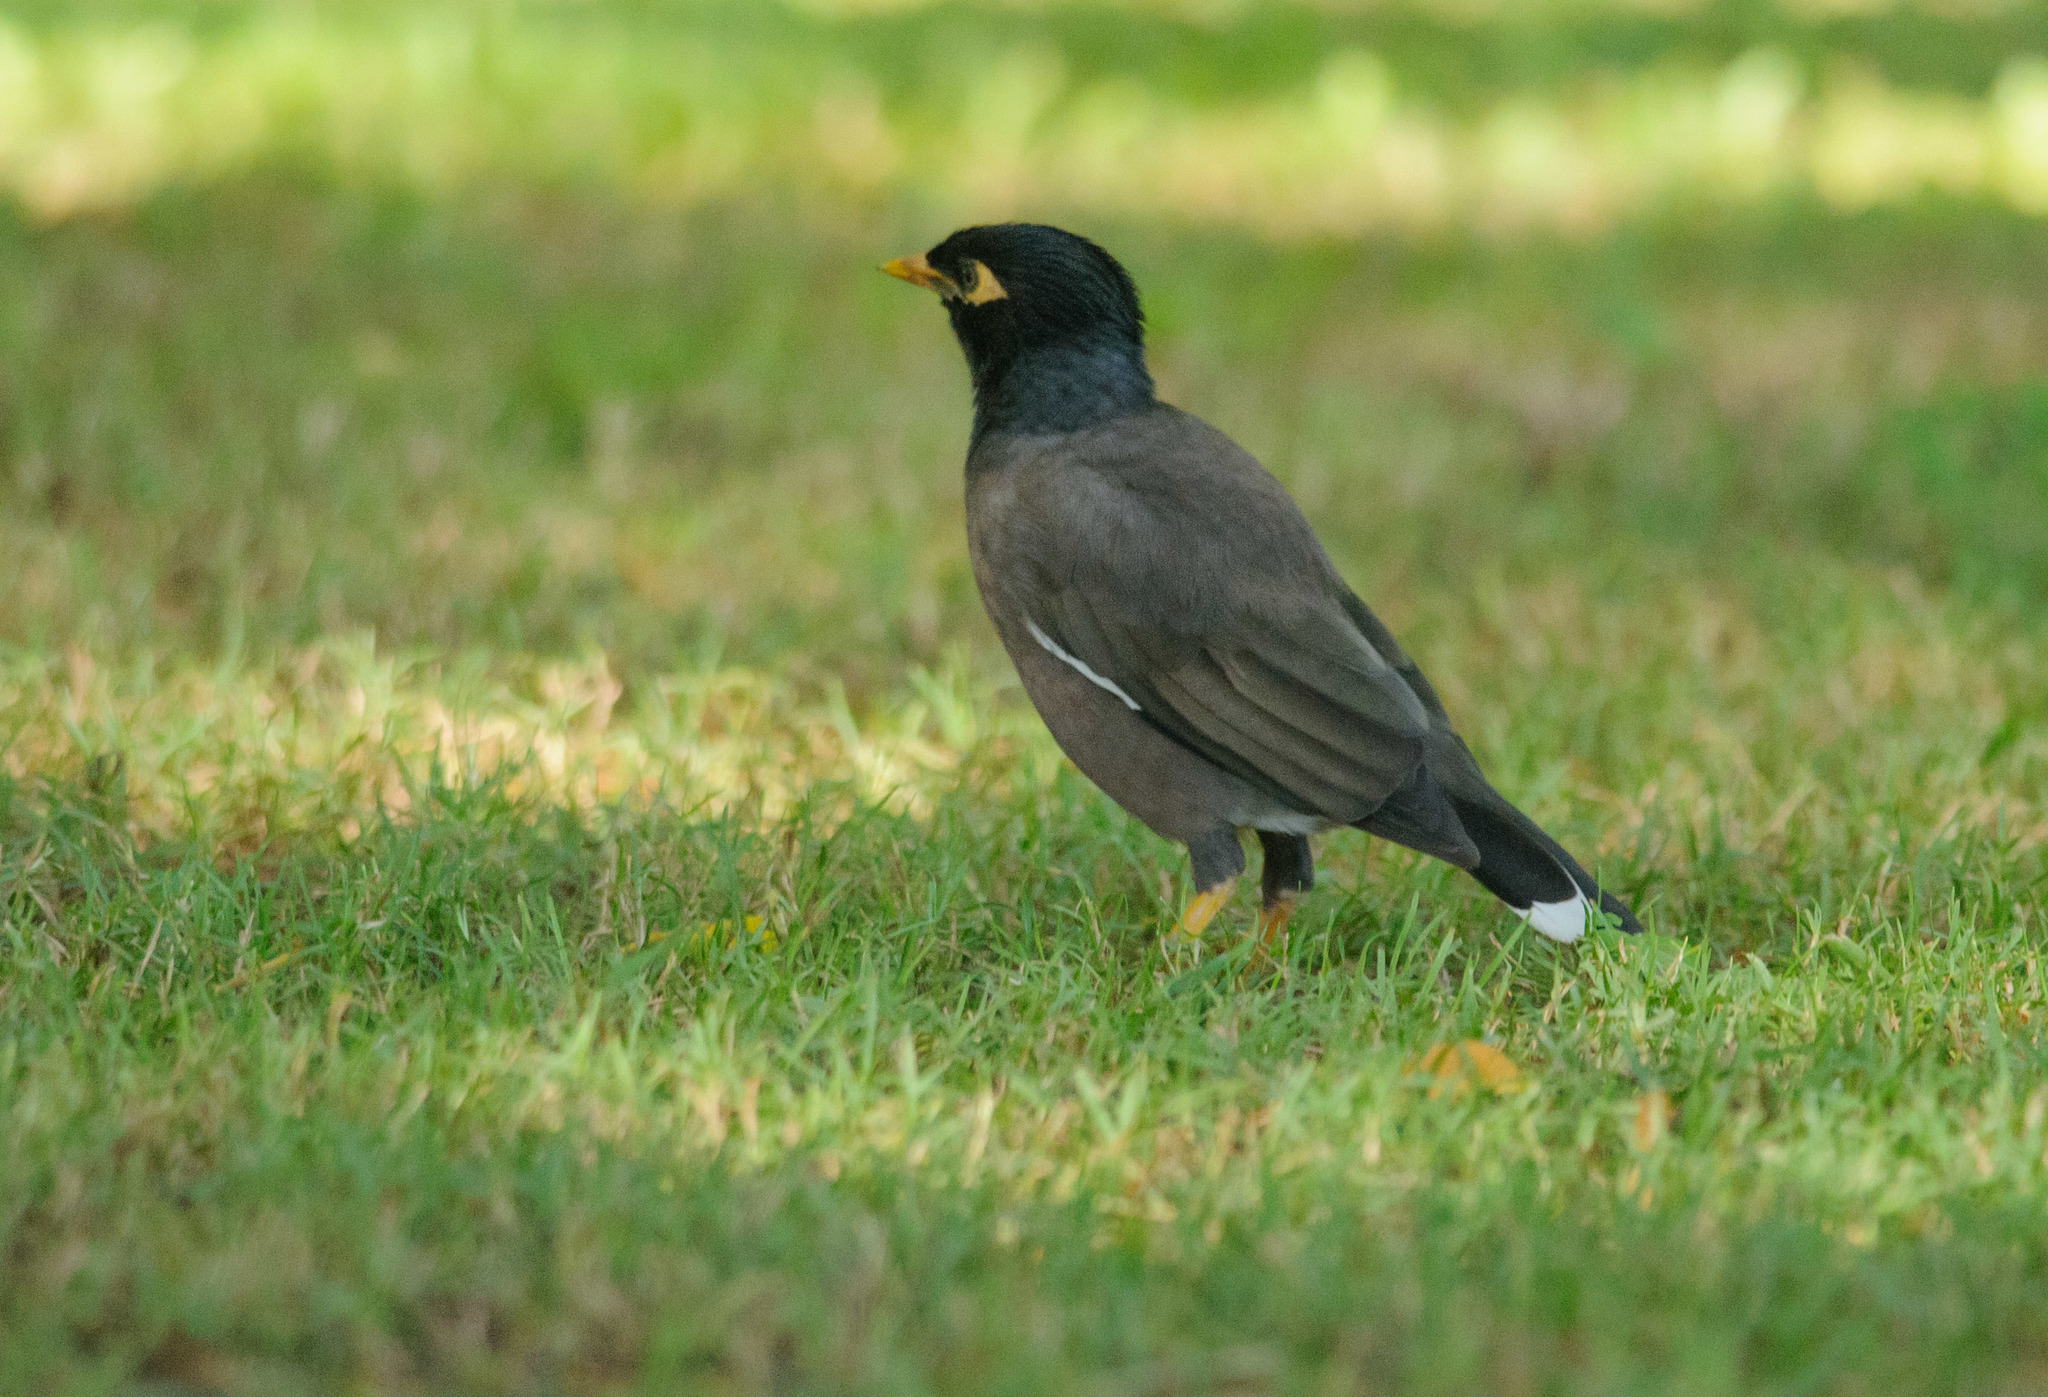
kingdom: Animalia
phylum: Chordata
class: Aves
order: Passeriformes
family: Sturnidae
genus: Acridotheres
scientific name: Acridotheres tristis
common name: Common myna
